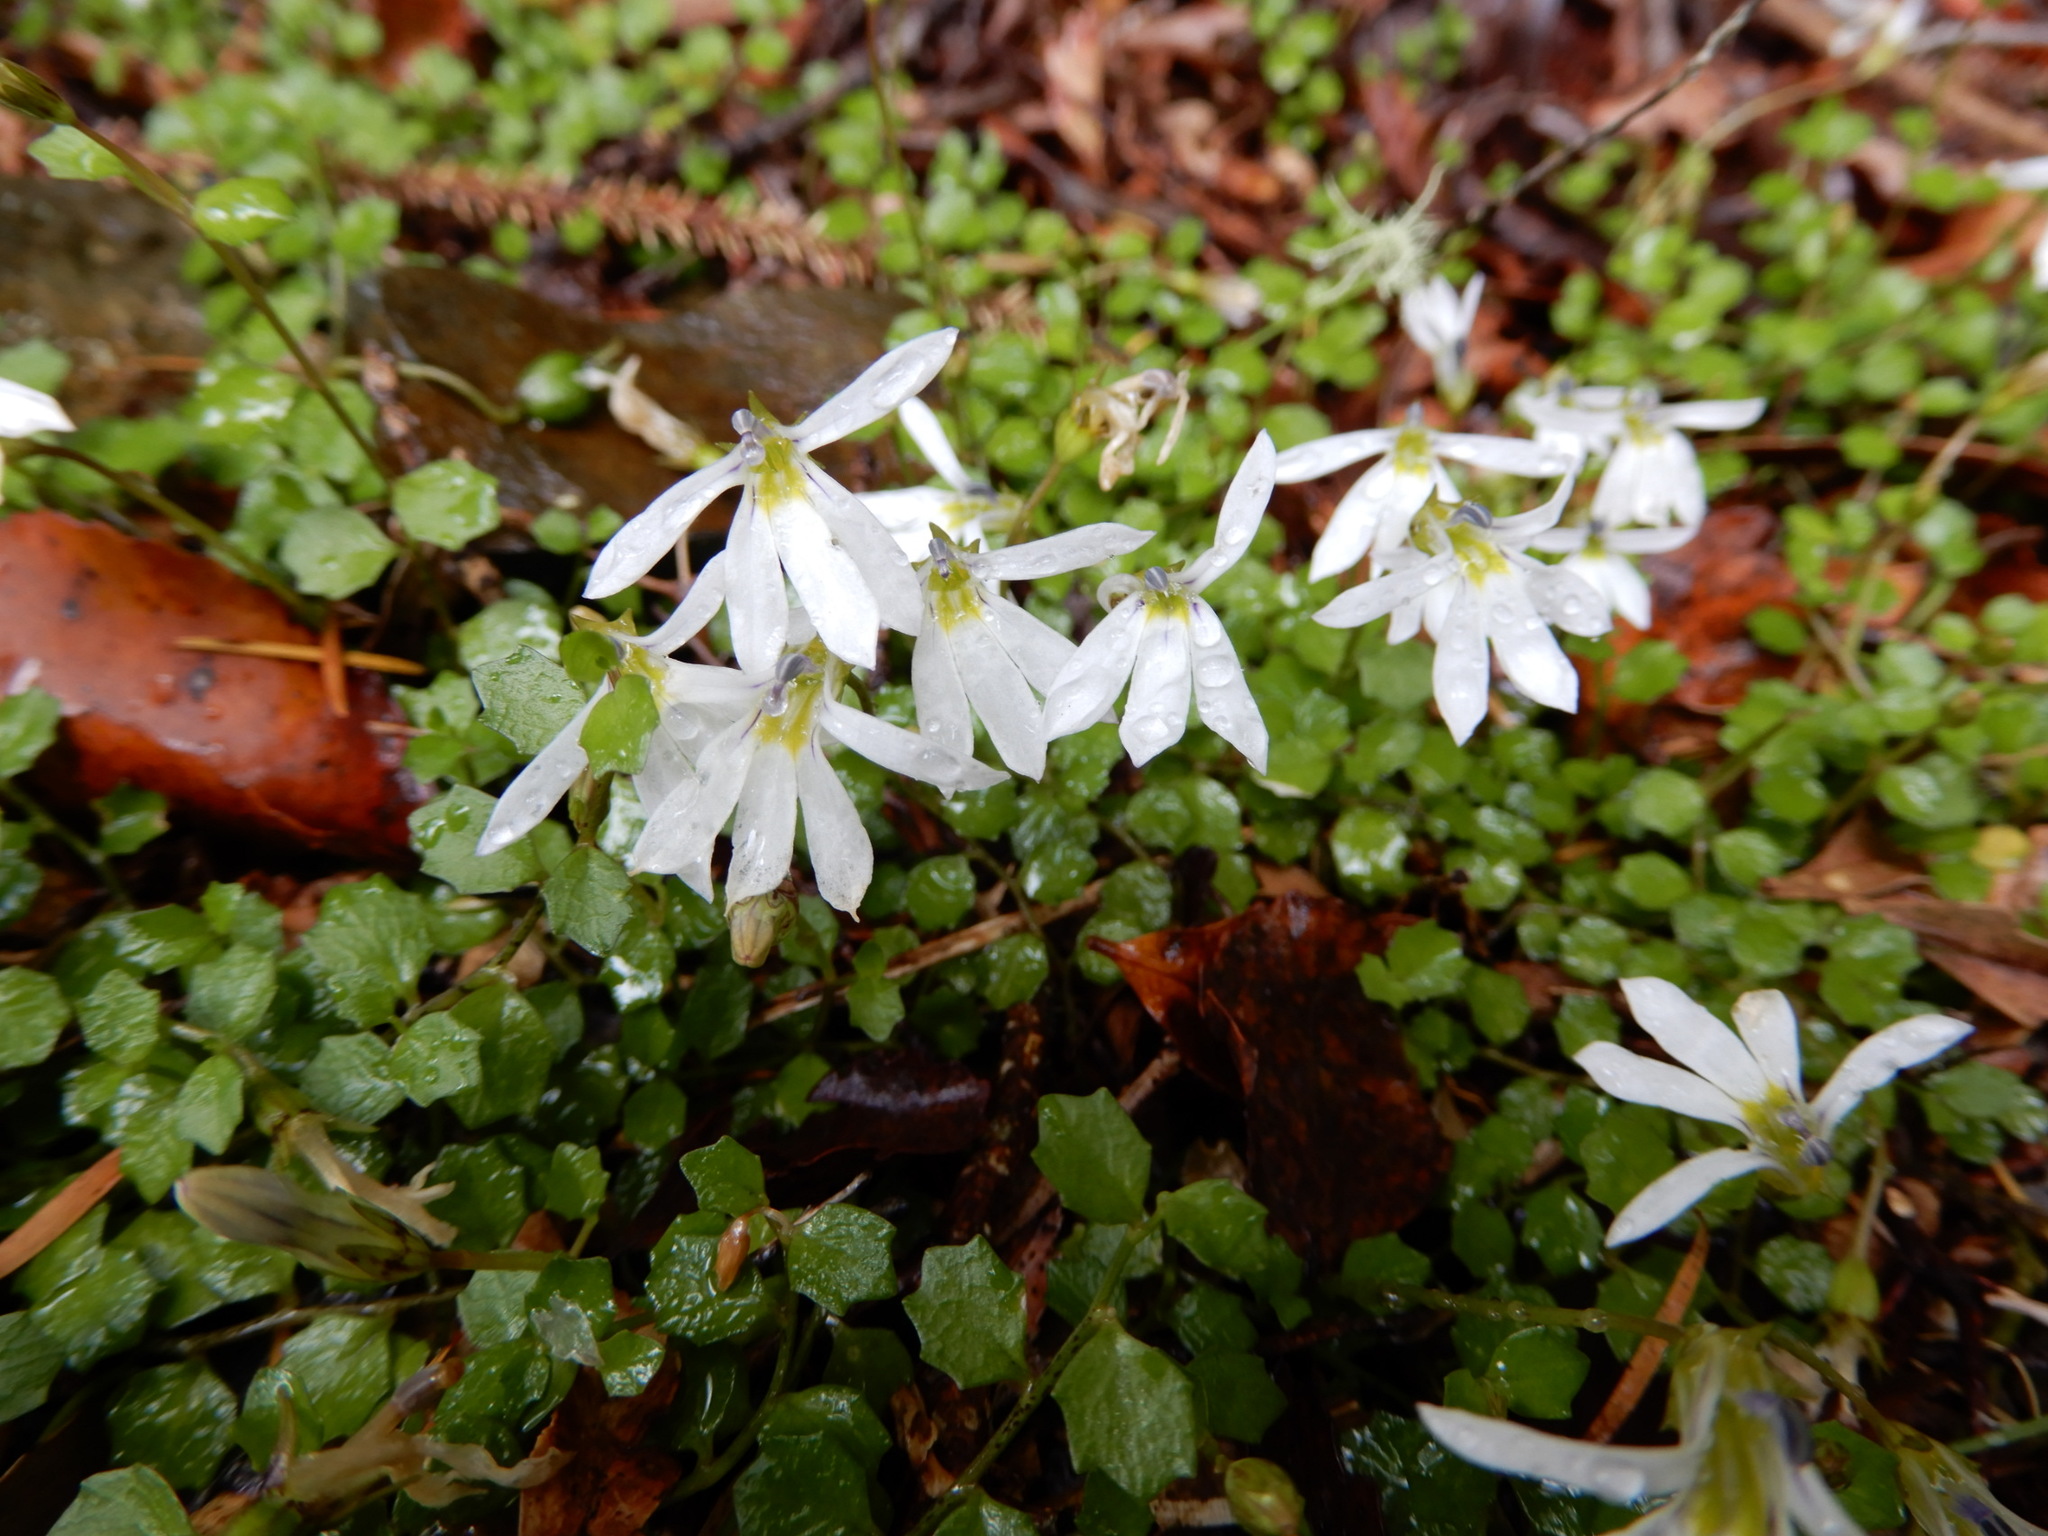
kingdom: Plantae
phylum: Tracheophyta
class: Magnoliopsida
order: Asterales
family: Campanulaceae
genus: Lobelia
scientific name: Lobelia angulata
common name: Lawn lobelia
